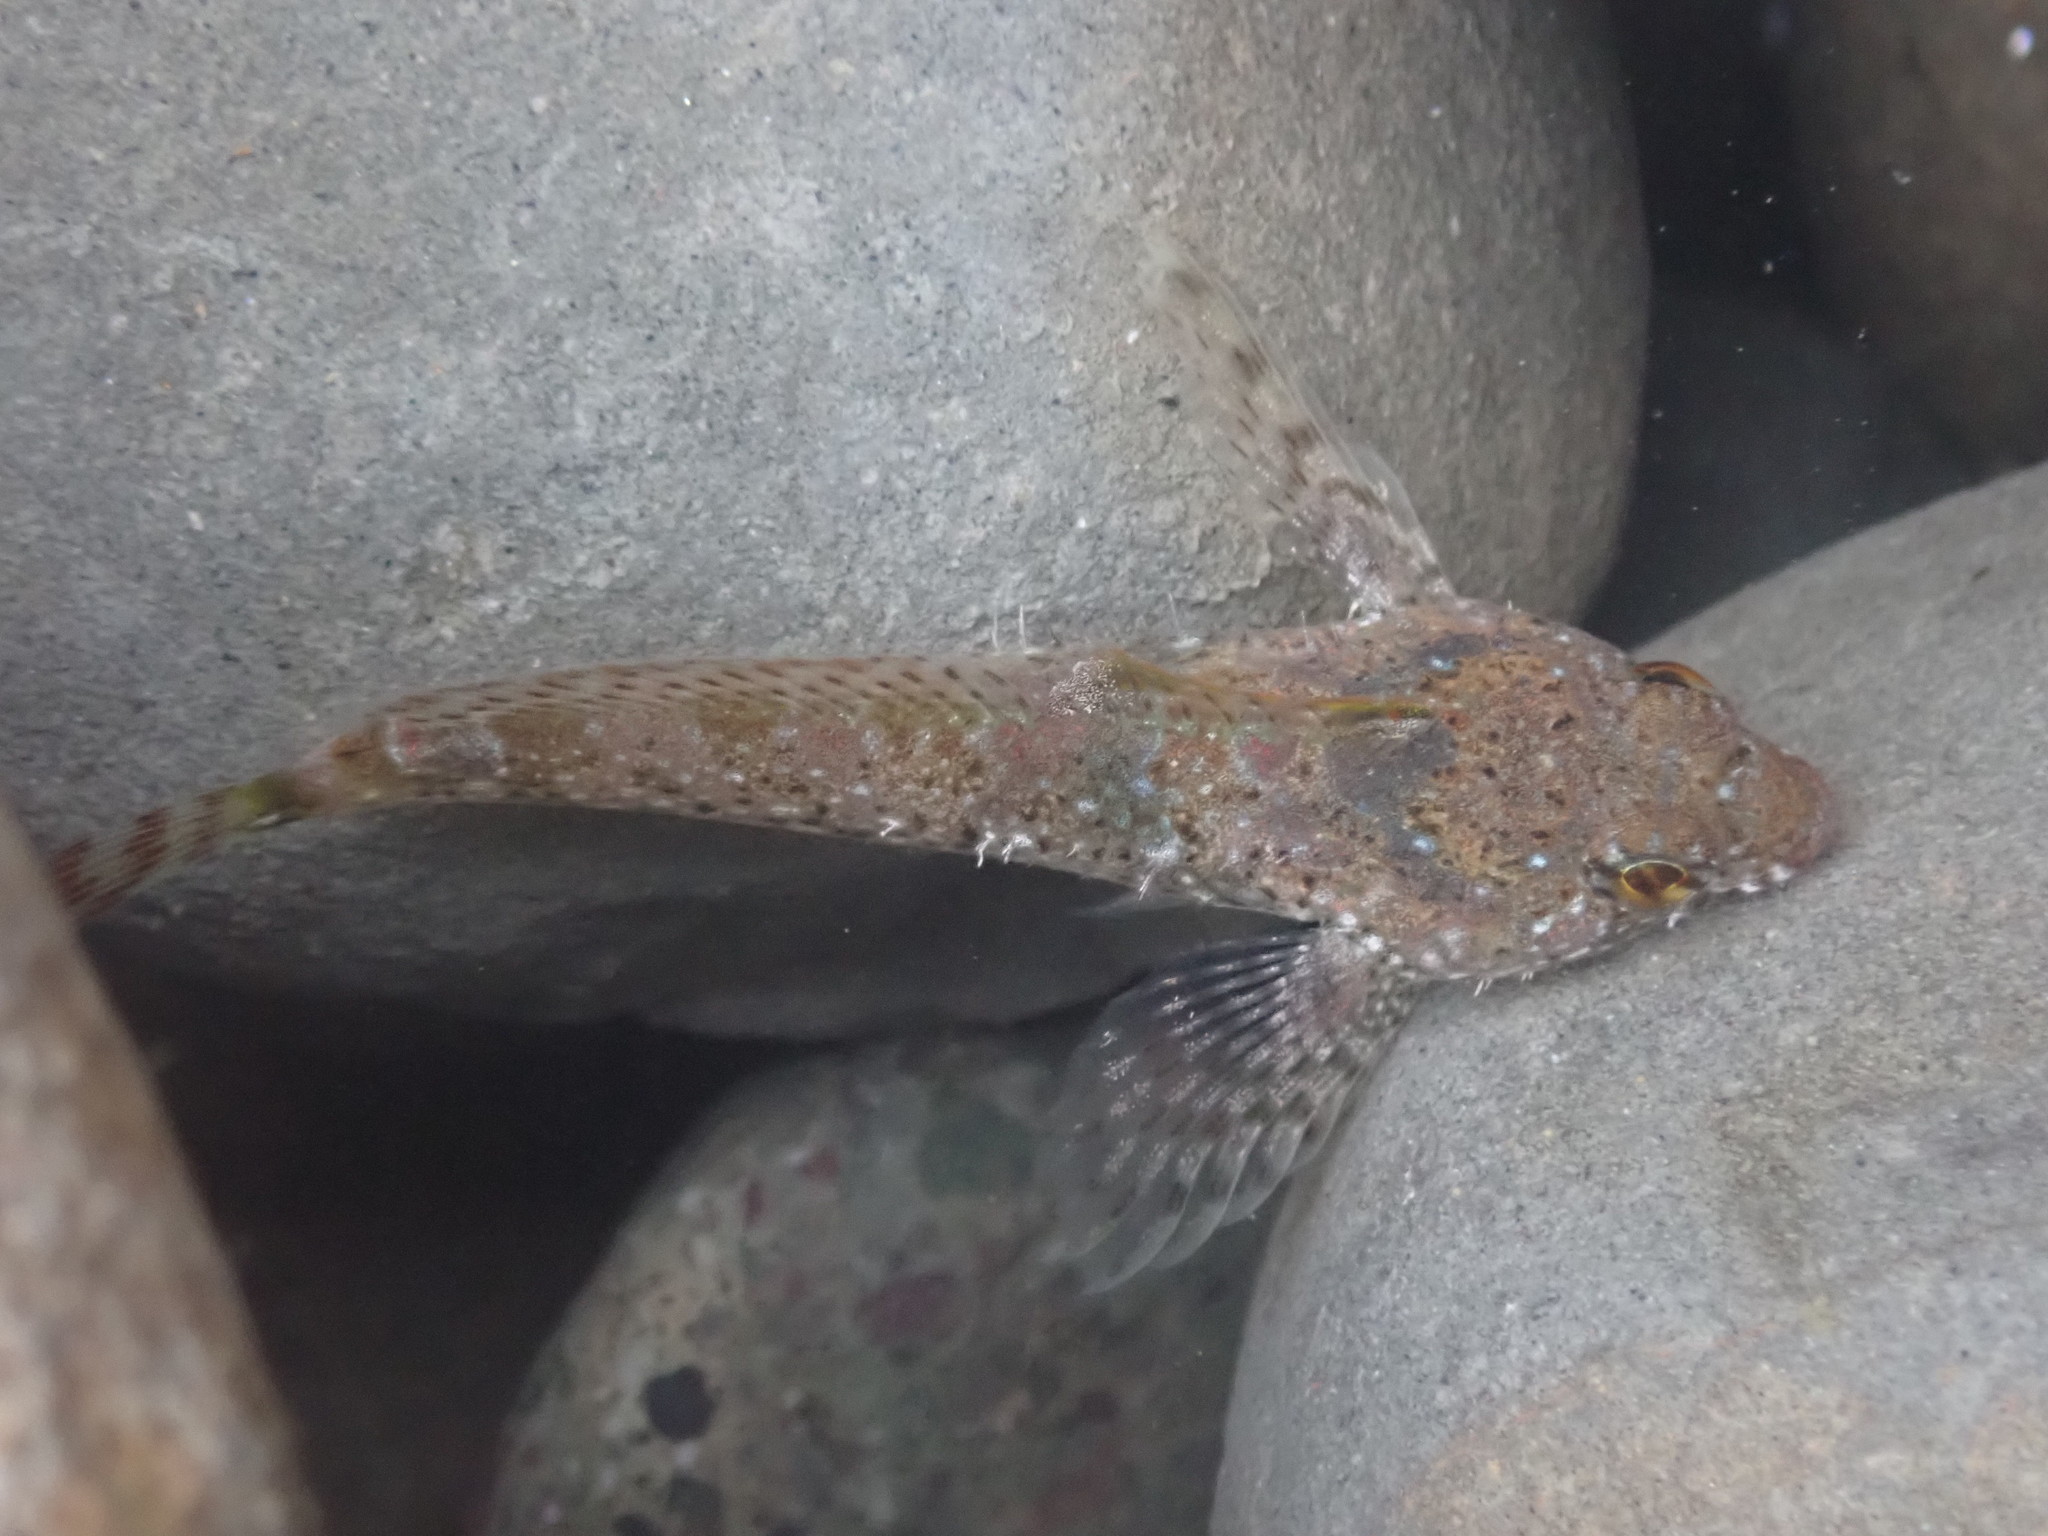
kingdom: Animalia
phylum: Chordata
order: Scorpaeniformes
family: Cottidae
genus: Clinocottus
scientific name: Clinocottus analis
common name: Woolly sculpin
